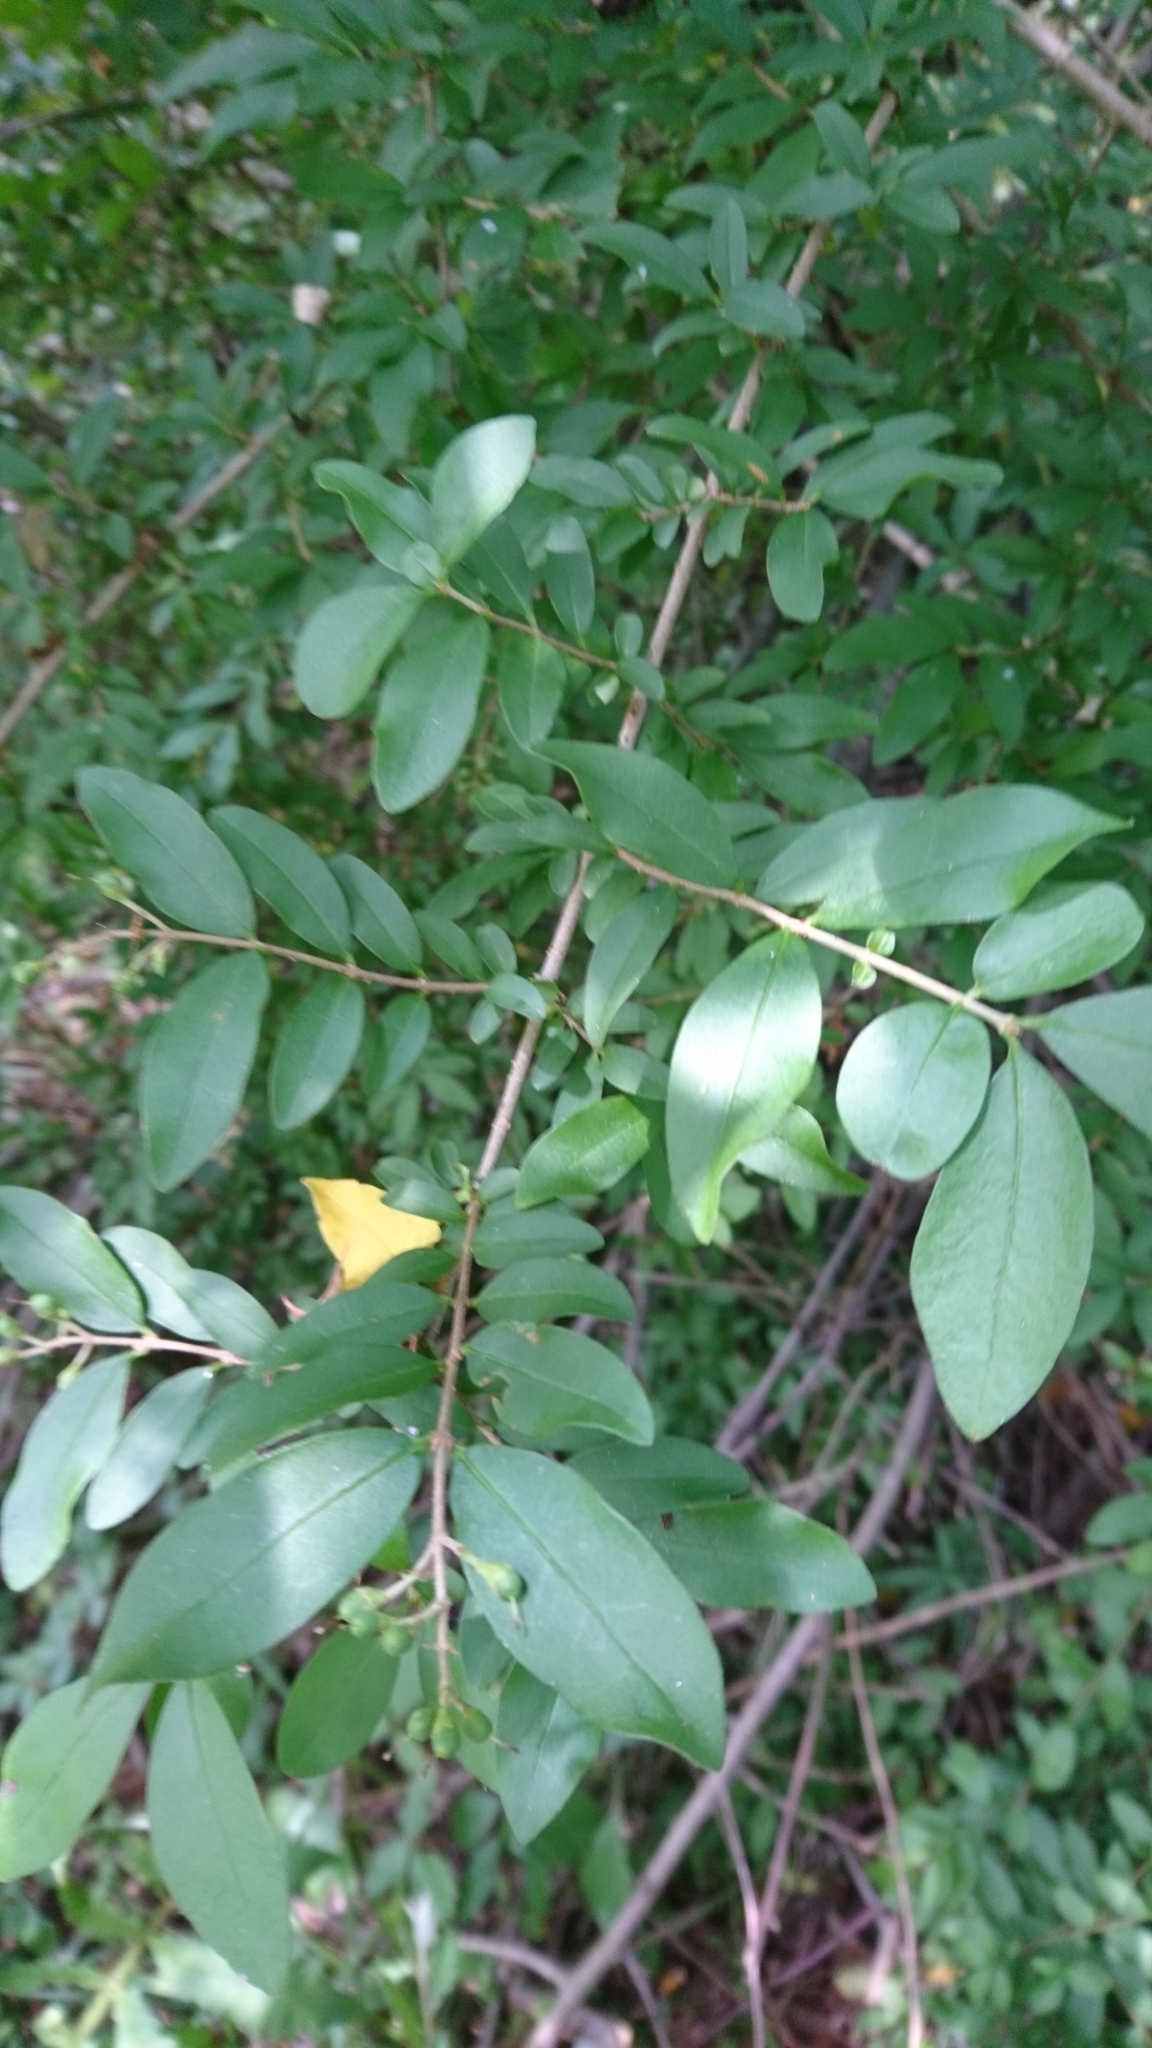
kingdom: Plantae
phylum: Tracheophyta
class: Magnoliopsida
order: Lamiales
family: Oleaceae
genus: Ligustrum
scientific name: Ligustrum obtusifolium
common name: Border privet
